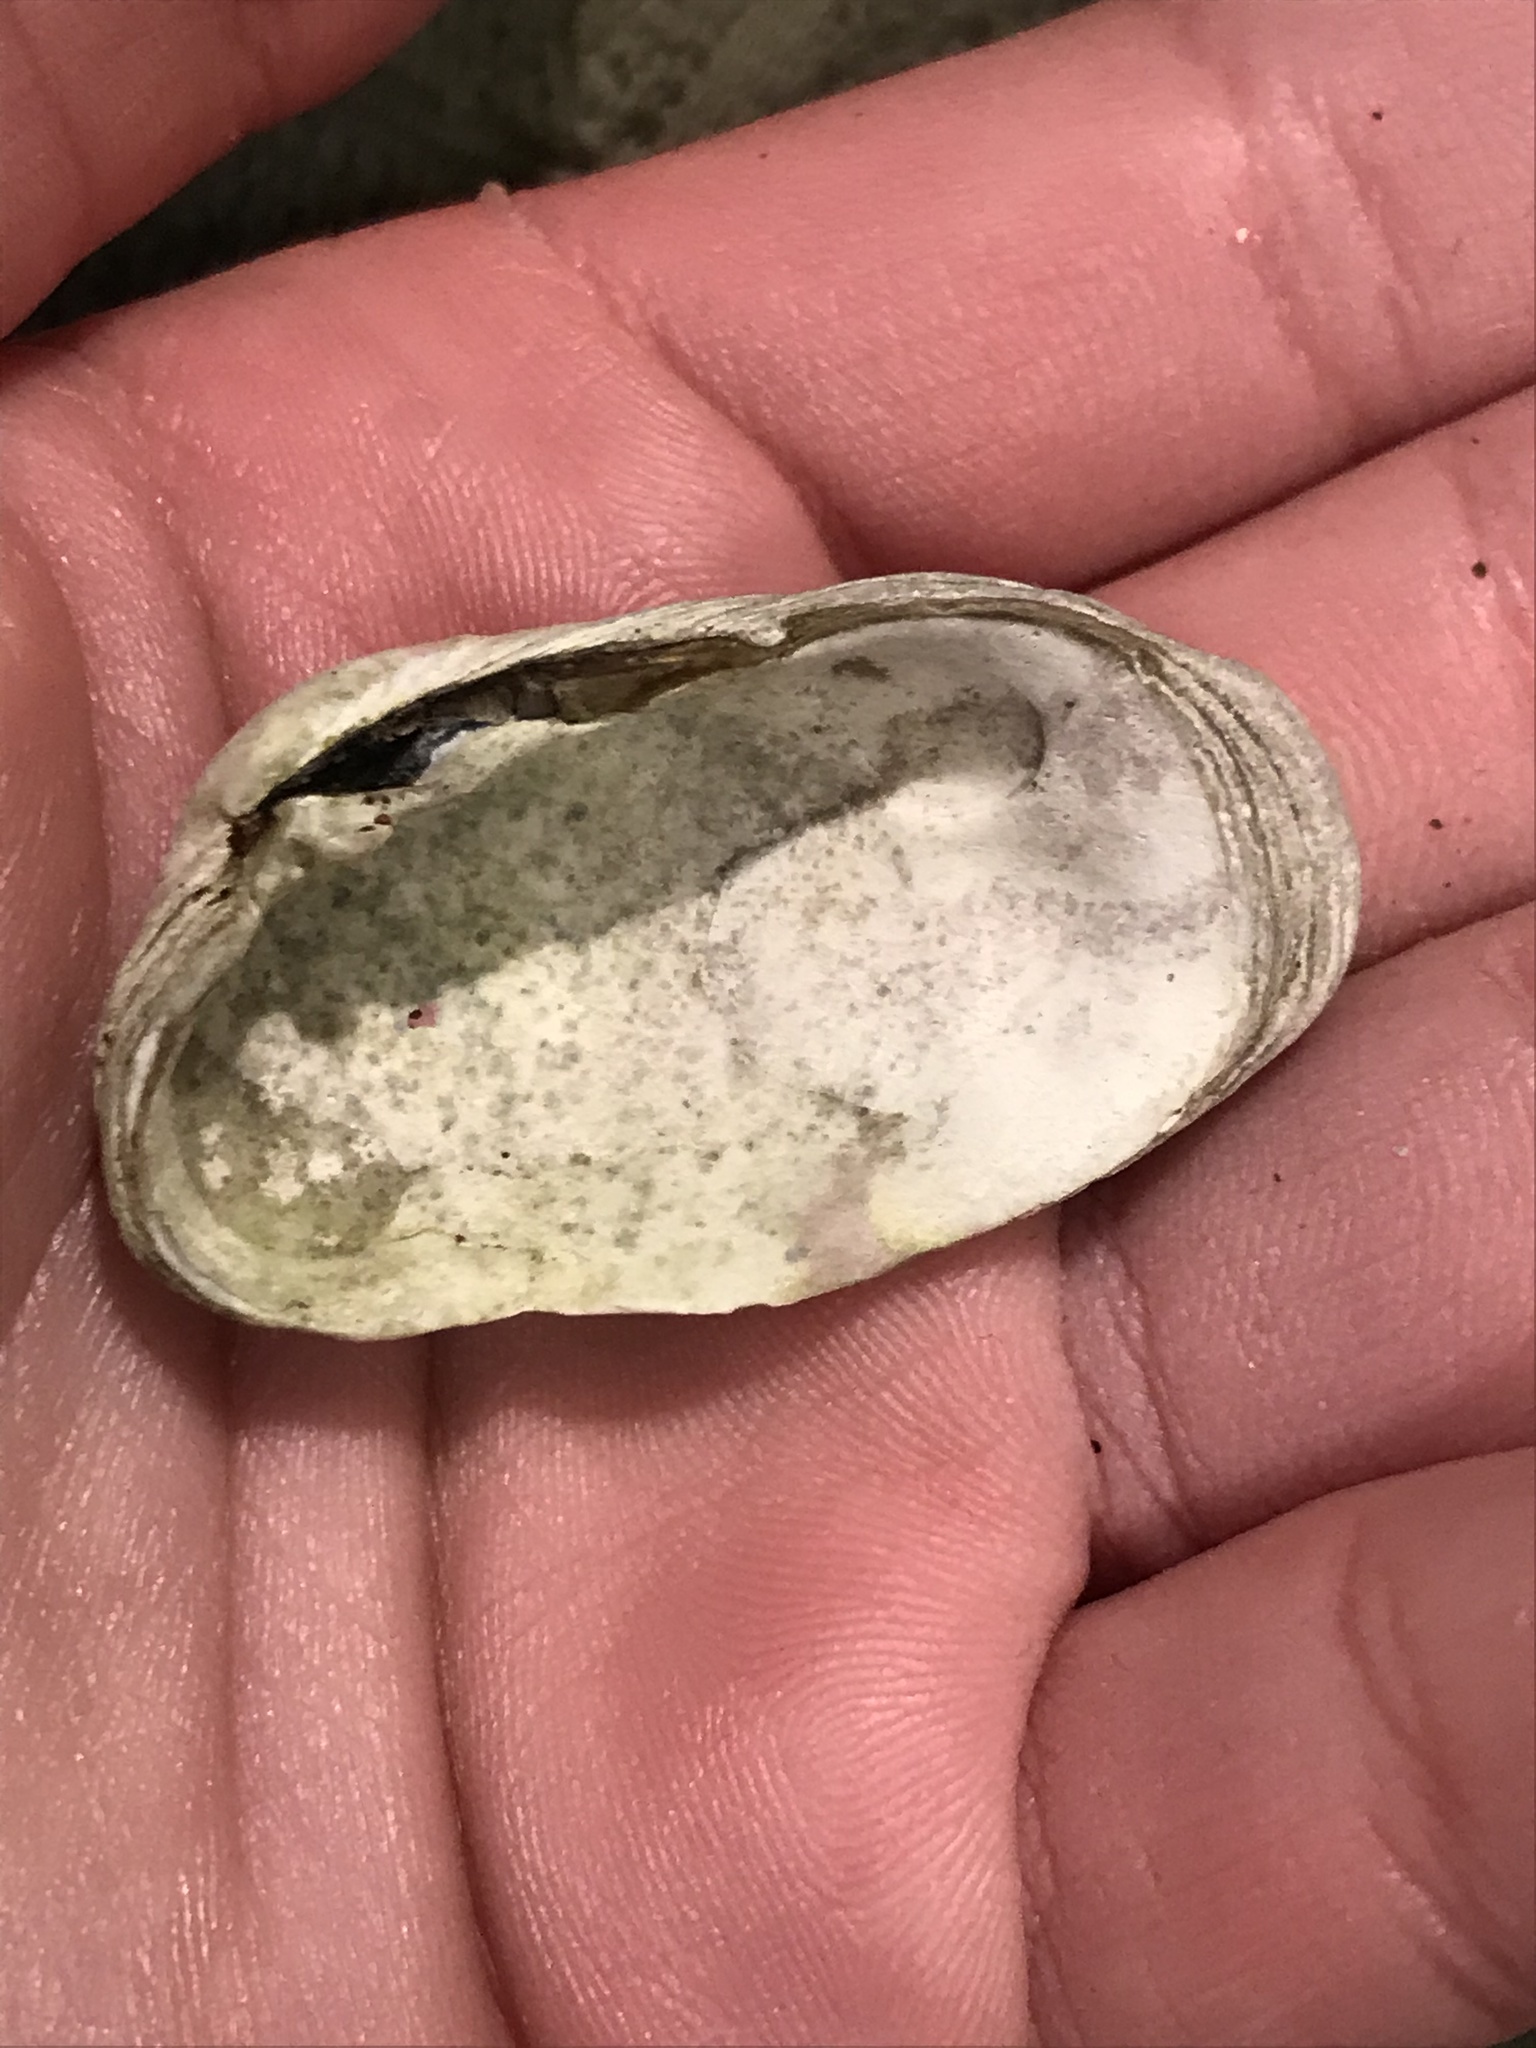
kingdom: Animalia
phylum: Mollusca
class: Bivalvia
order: Venerida
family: Veneridae
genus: Petricola
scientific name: Petricola carditoides
